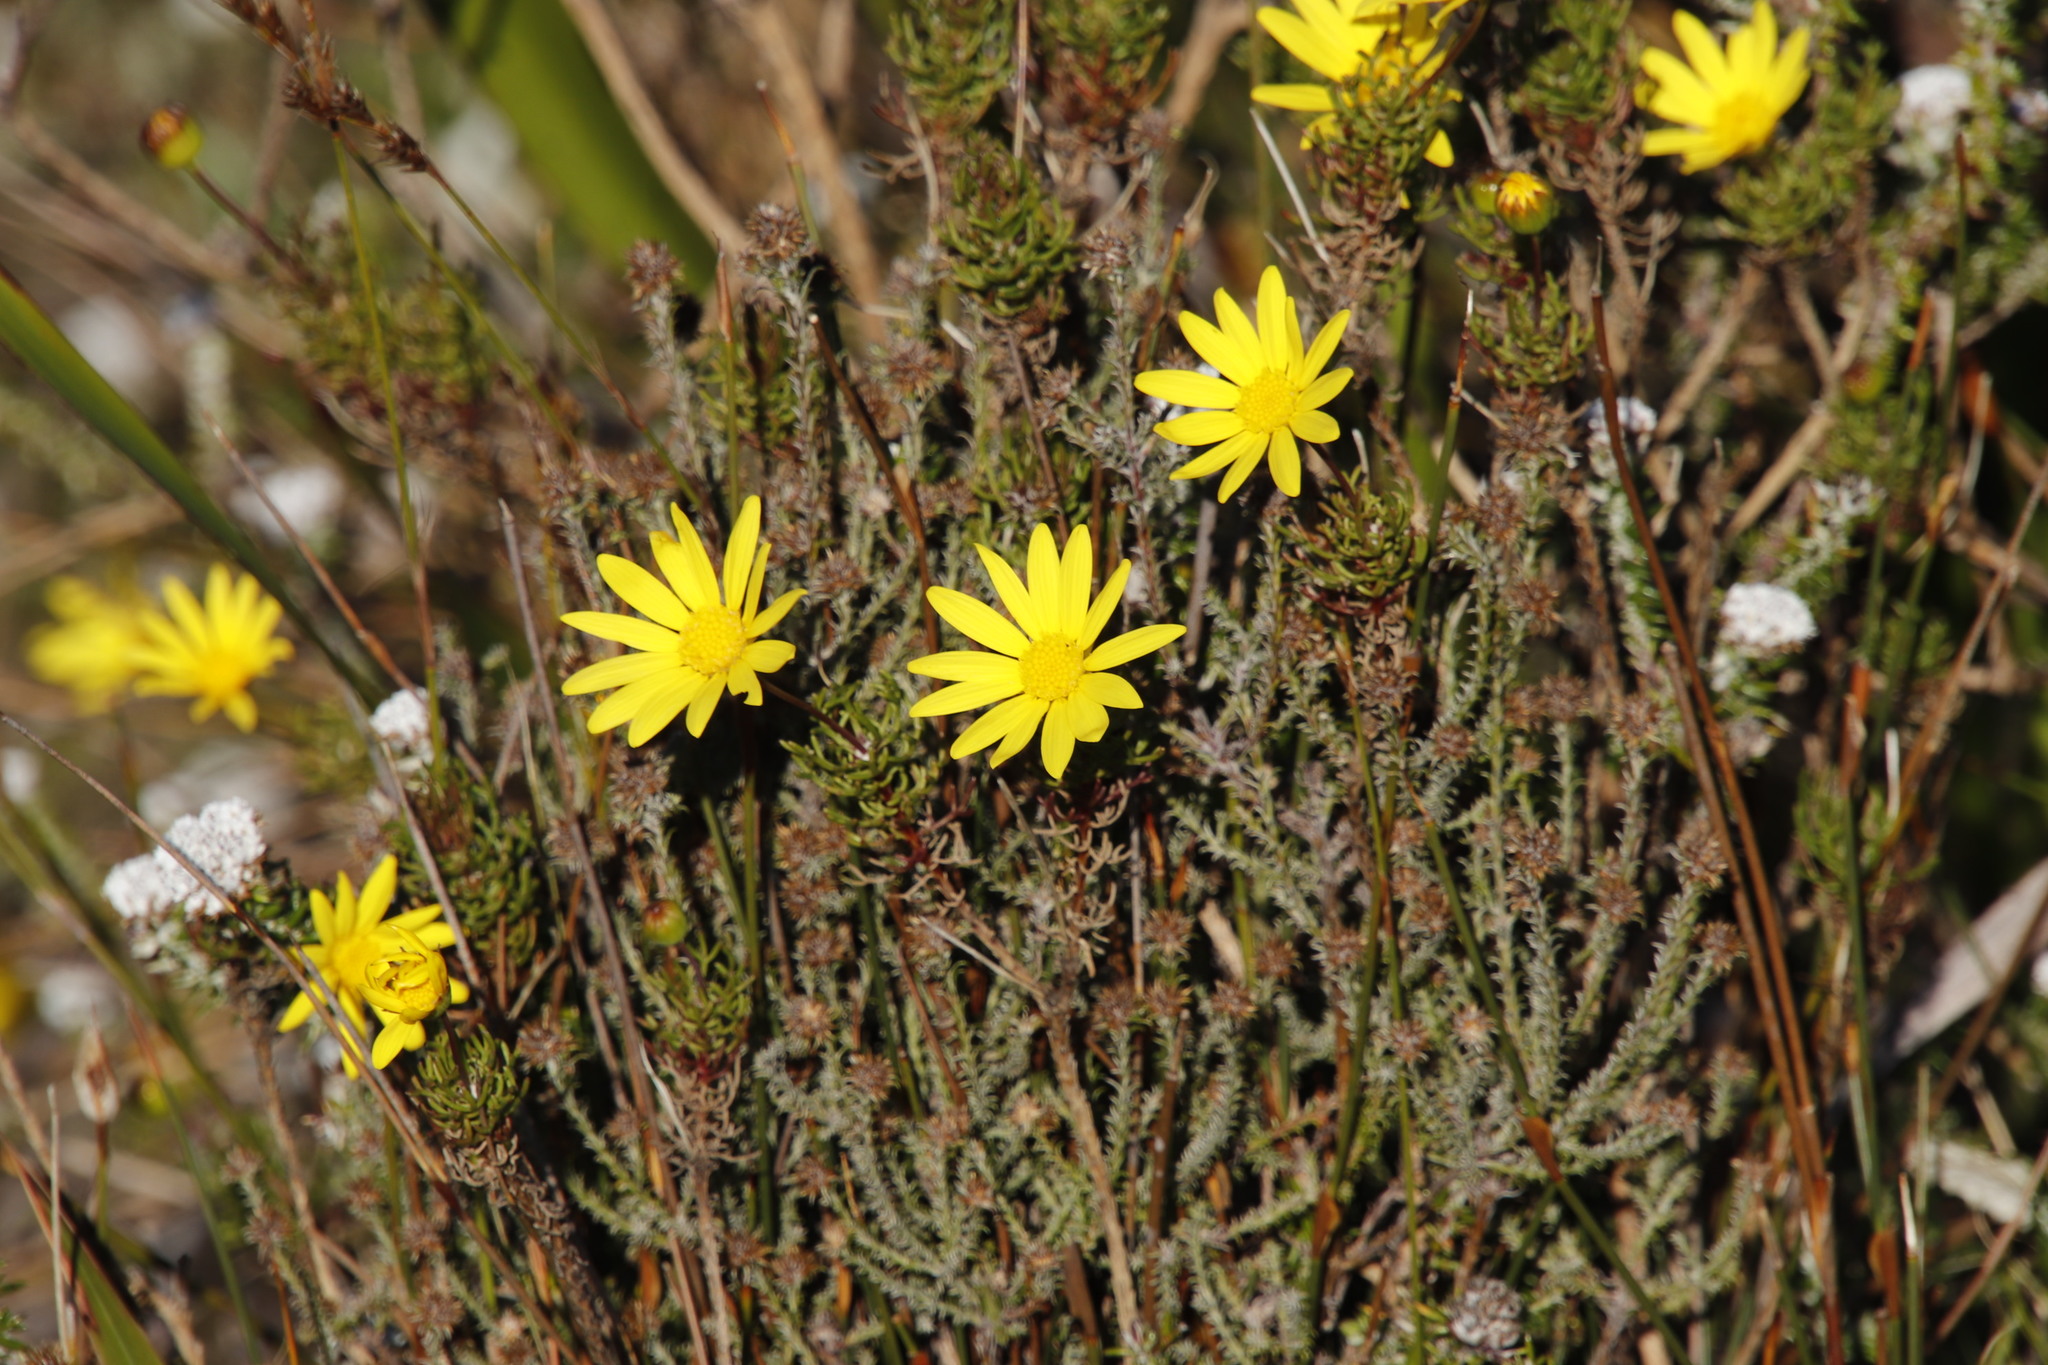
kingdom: Plantae
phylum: Tracheophyta
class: Magnoliopsida
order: Asterales
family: Asteraceae
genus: Euryops
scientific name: Euryops abrotanifolius
